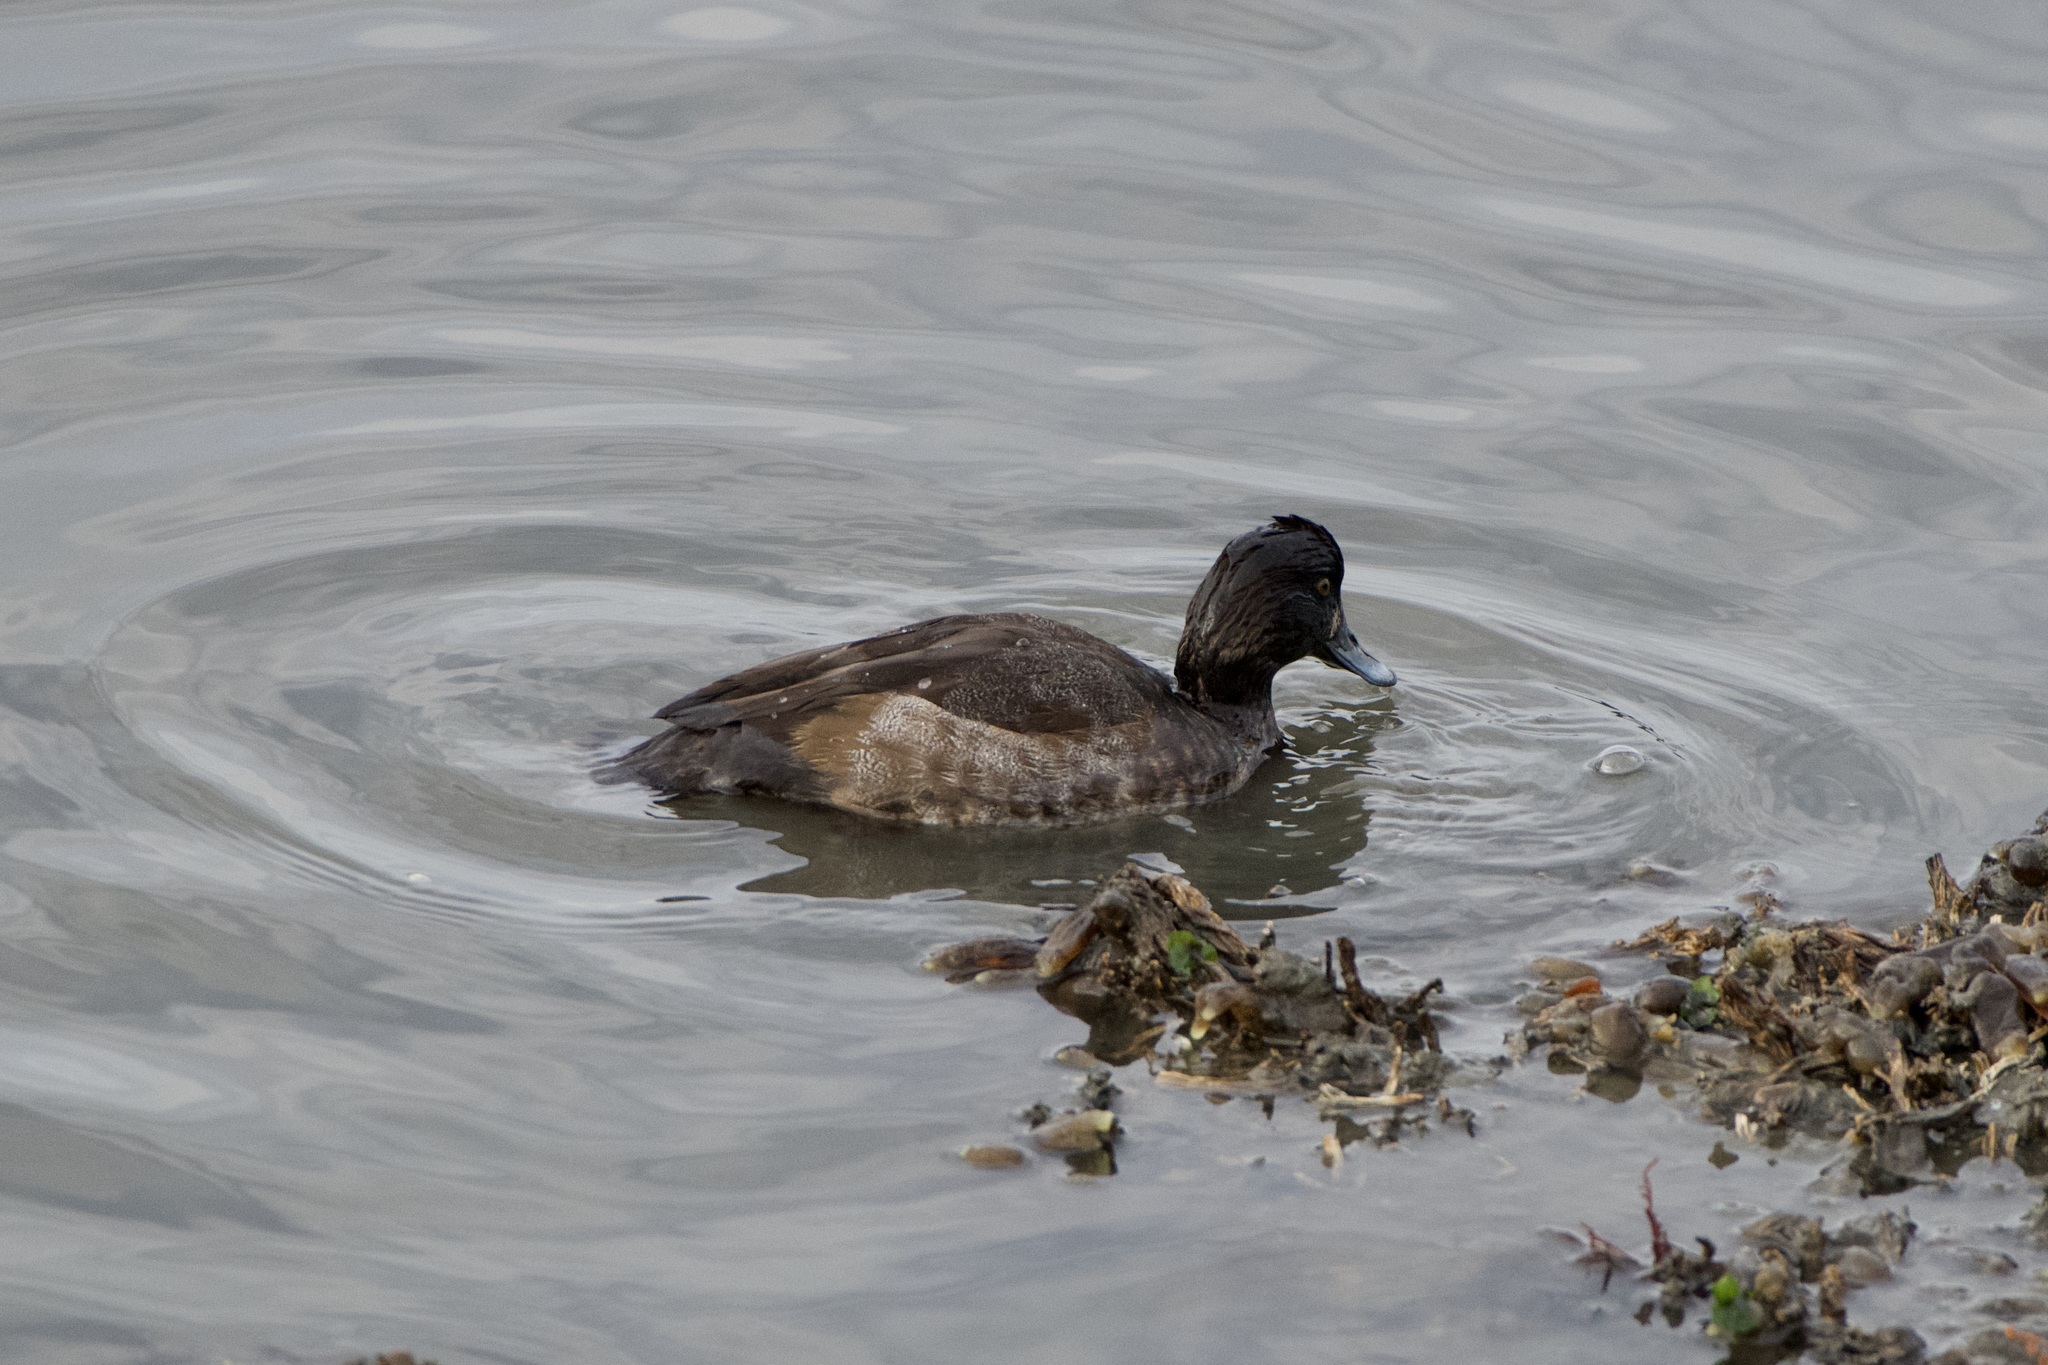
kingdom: Animalia
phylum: Chordata
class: Aves
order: Anseriformes
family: Anatidae
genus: Aythya
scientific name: Aythya marila
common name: Greater scaup
